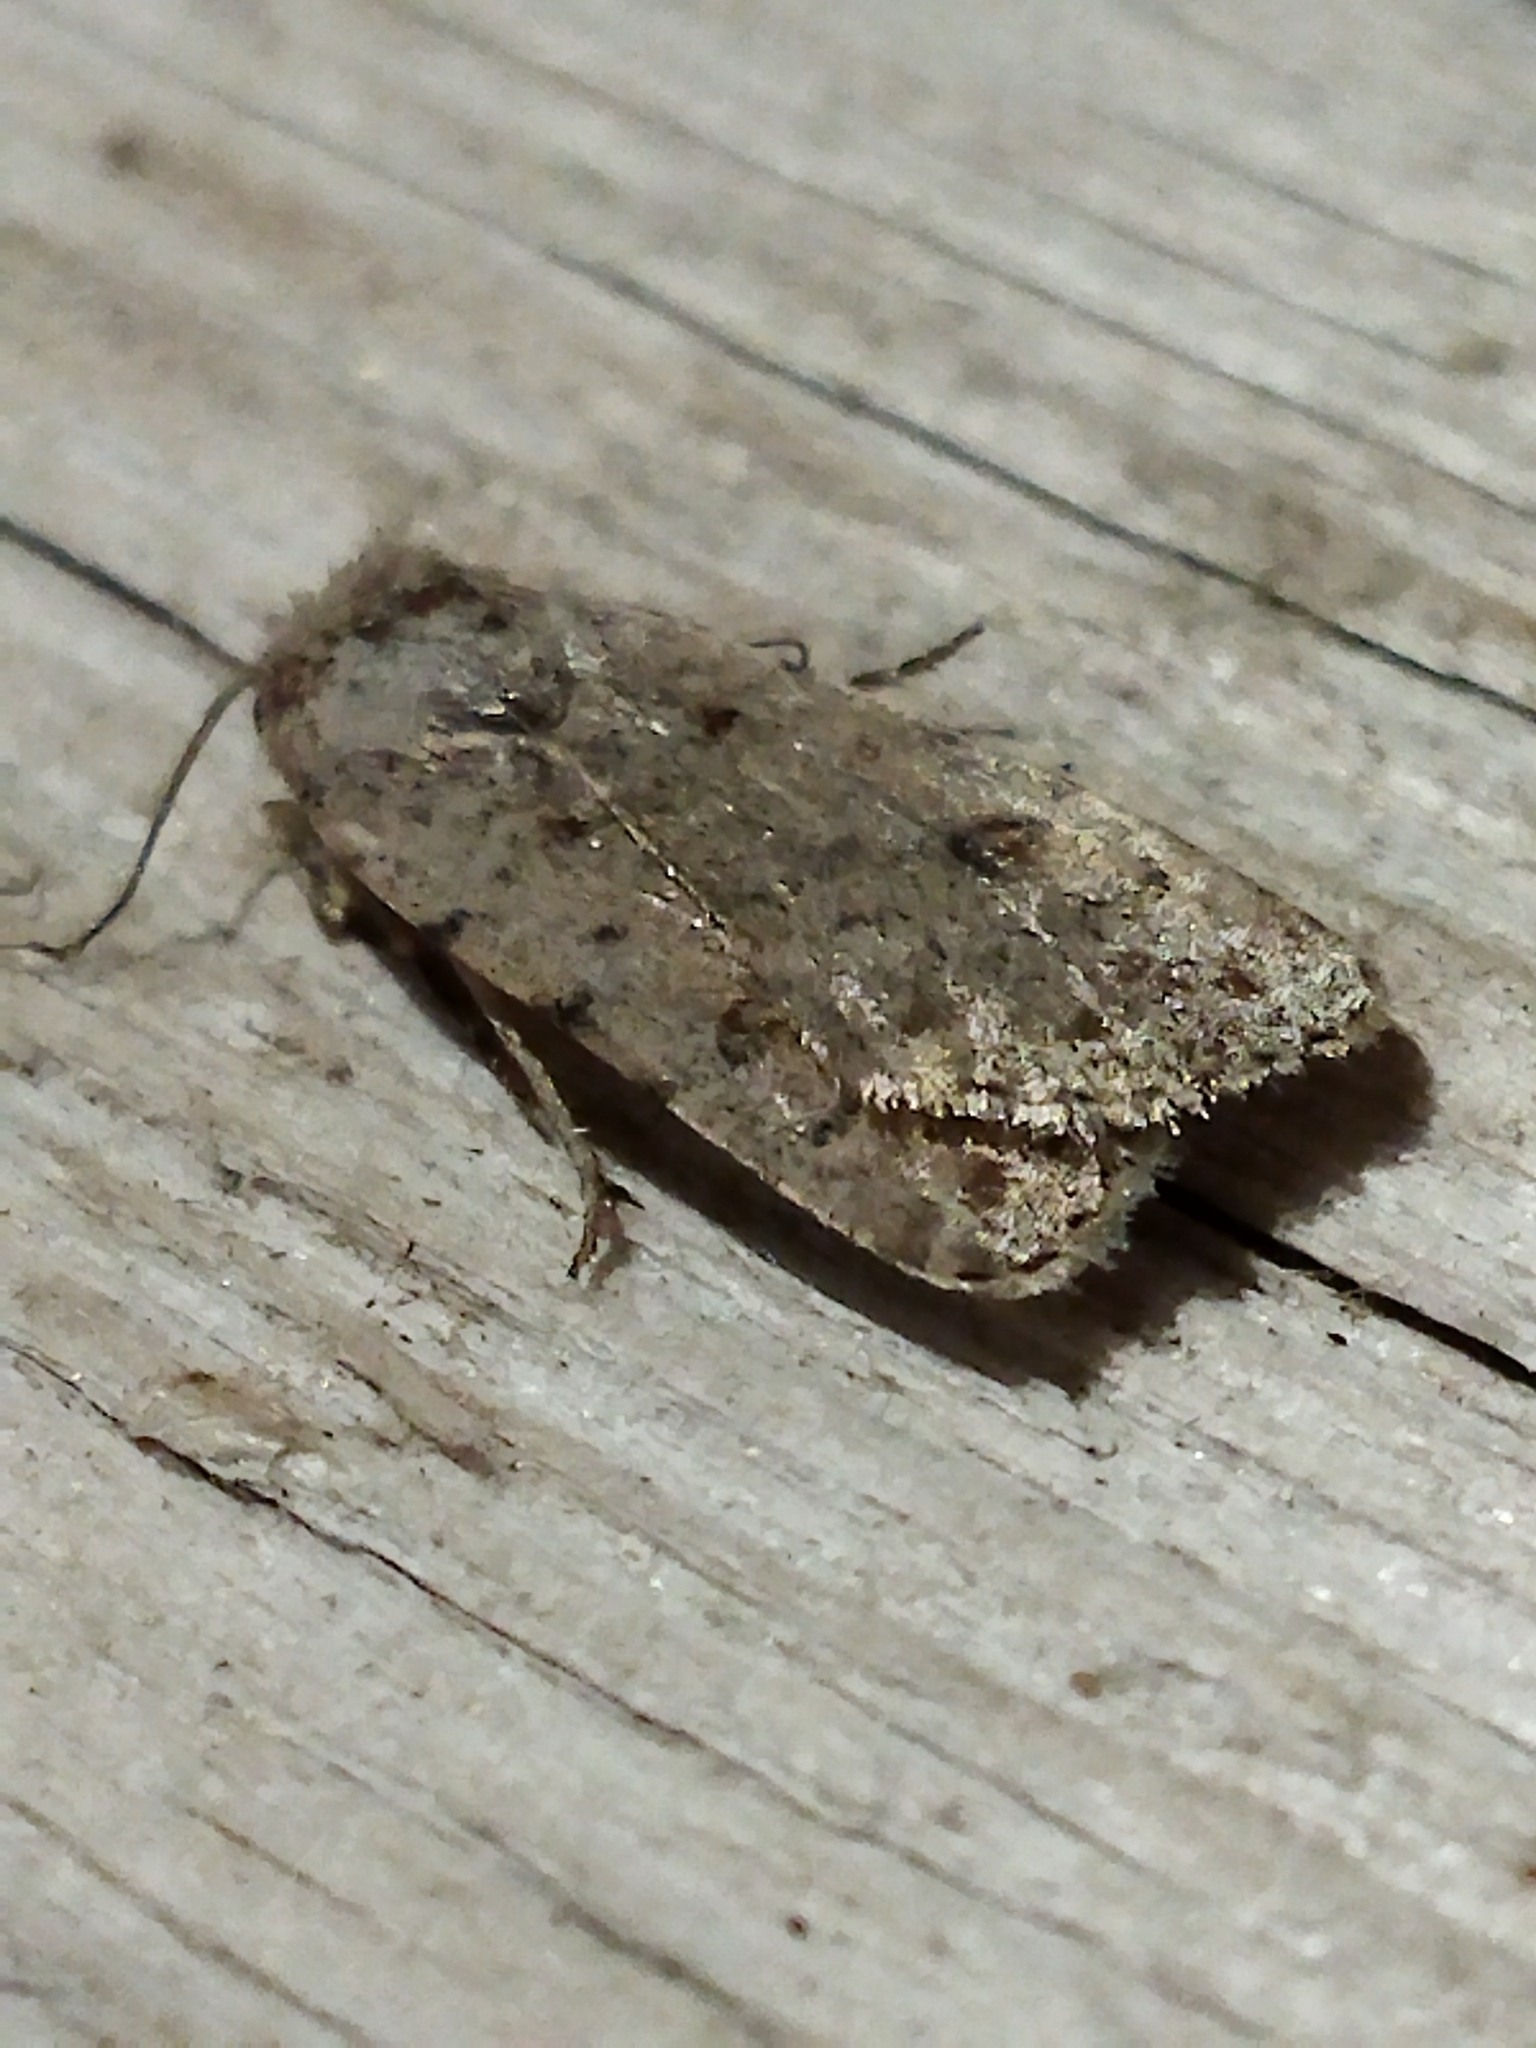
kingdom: Animalia
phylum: Arthropoda
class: Insecta
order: Lepidoptera
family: Noctuidae
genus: Caradrina
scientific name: Caradrina clavipalpis
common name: Pale mottled willow
